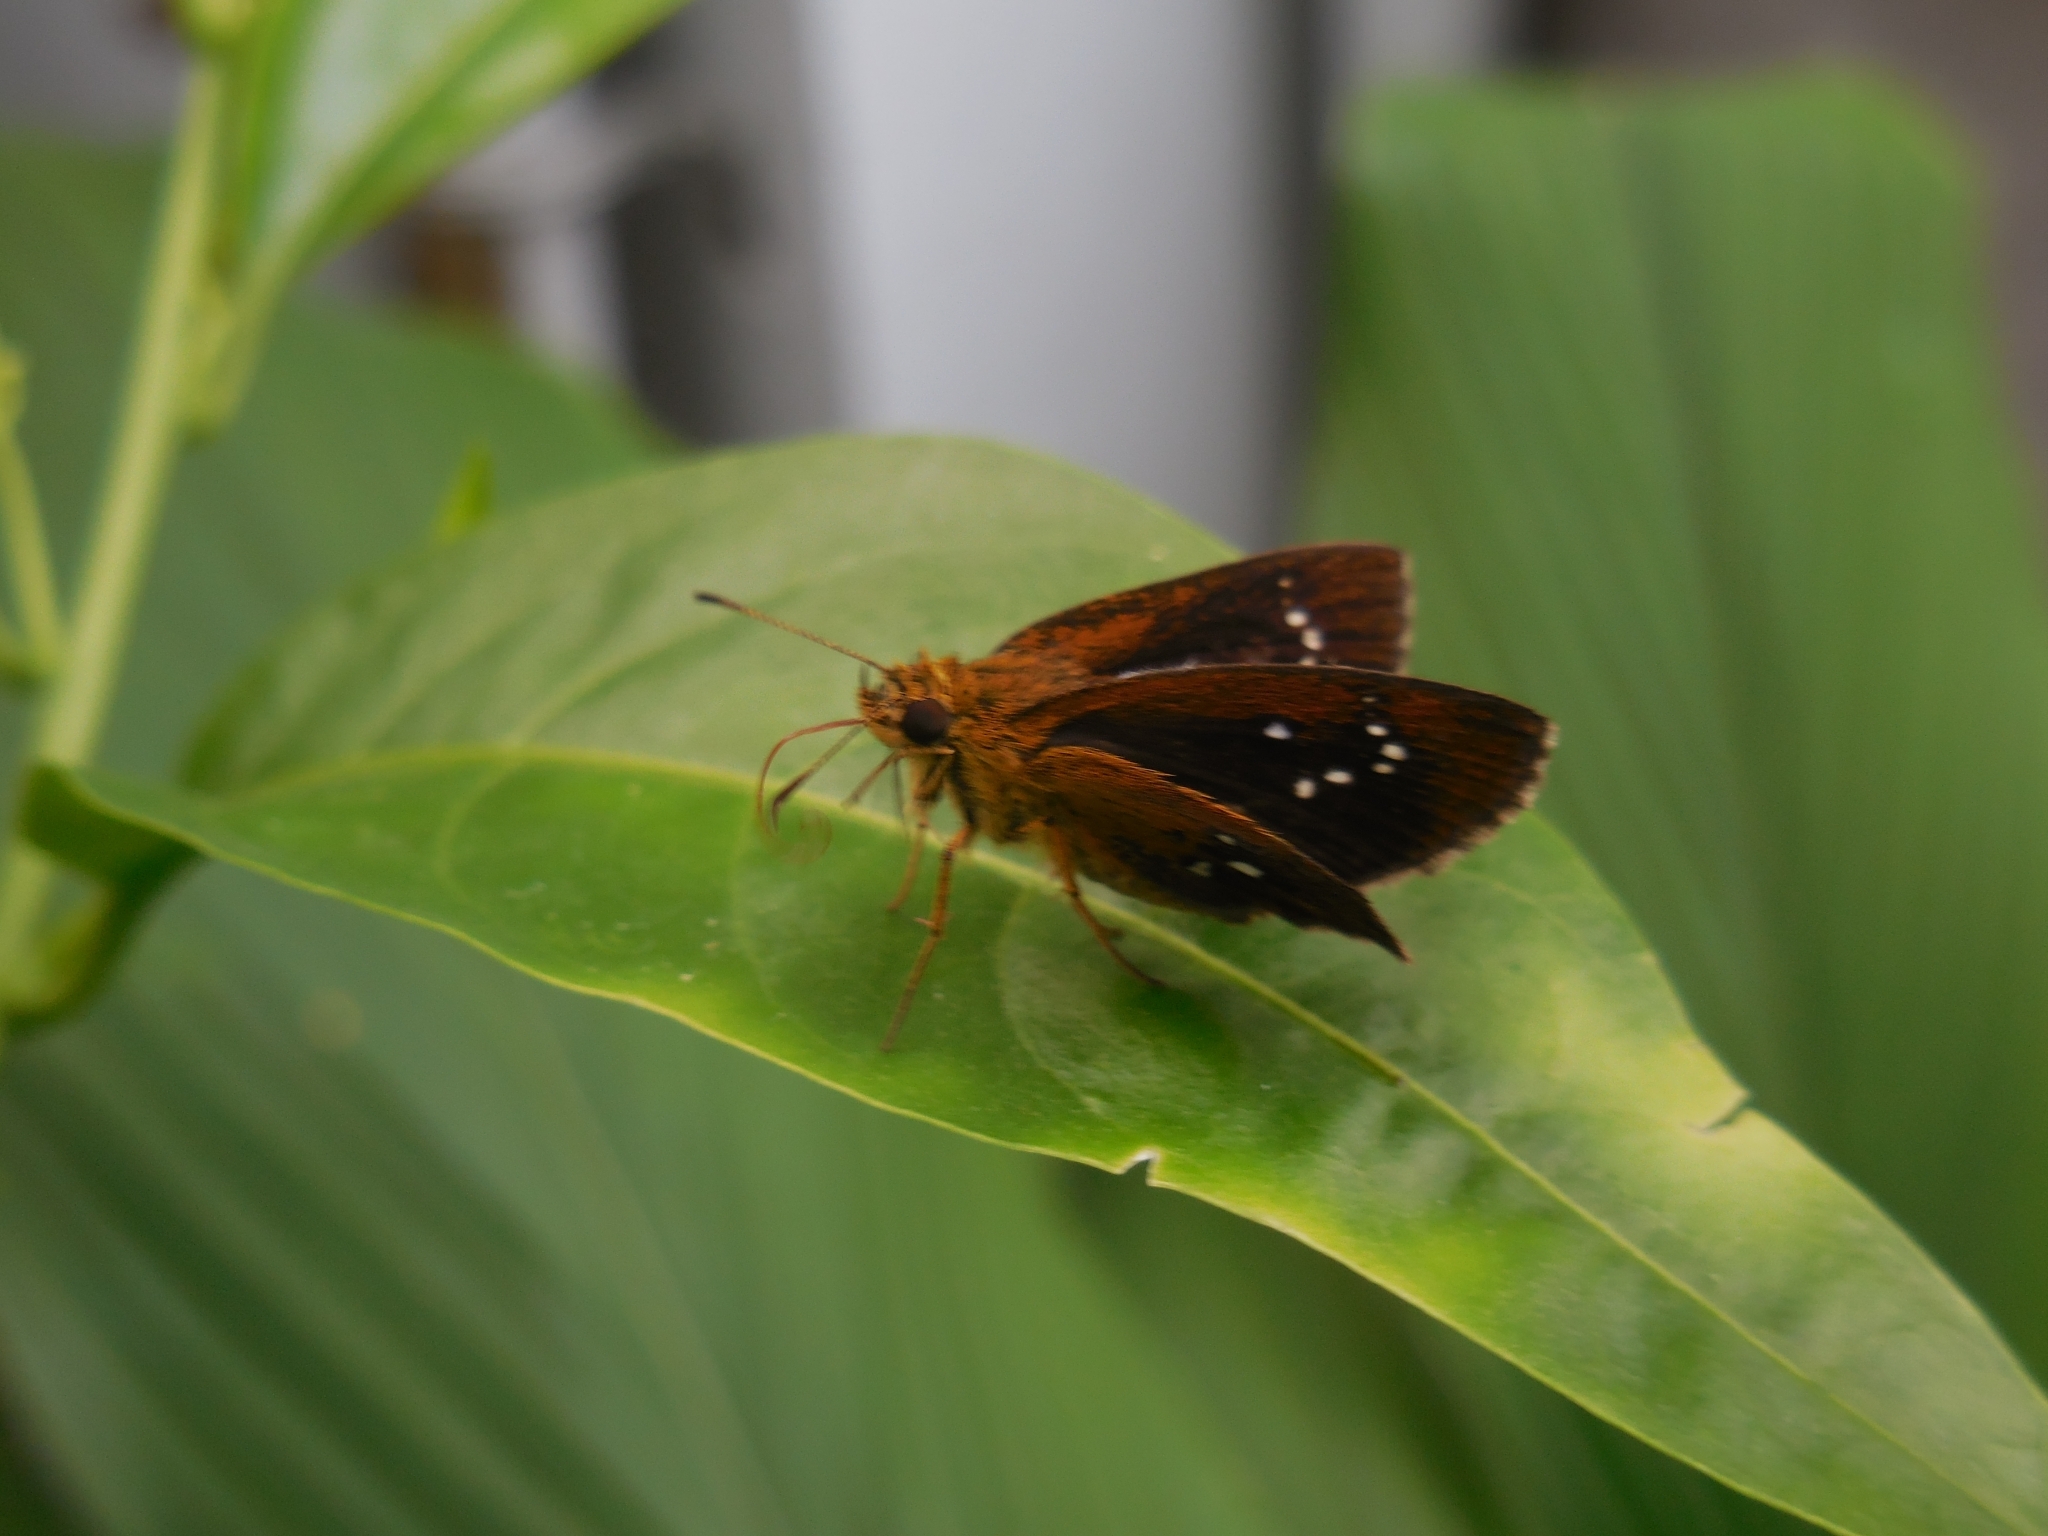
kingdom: Animalia
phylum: Arthropoda
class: Insecta
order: Lepidoptera
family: Hesperiidae
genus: Iambrix
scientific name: Iambrix salsala
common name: Chestnut bob
